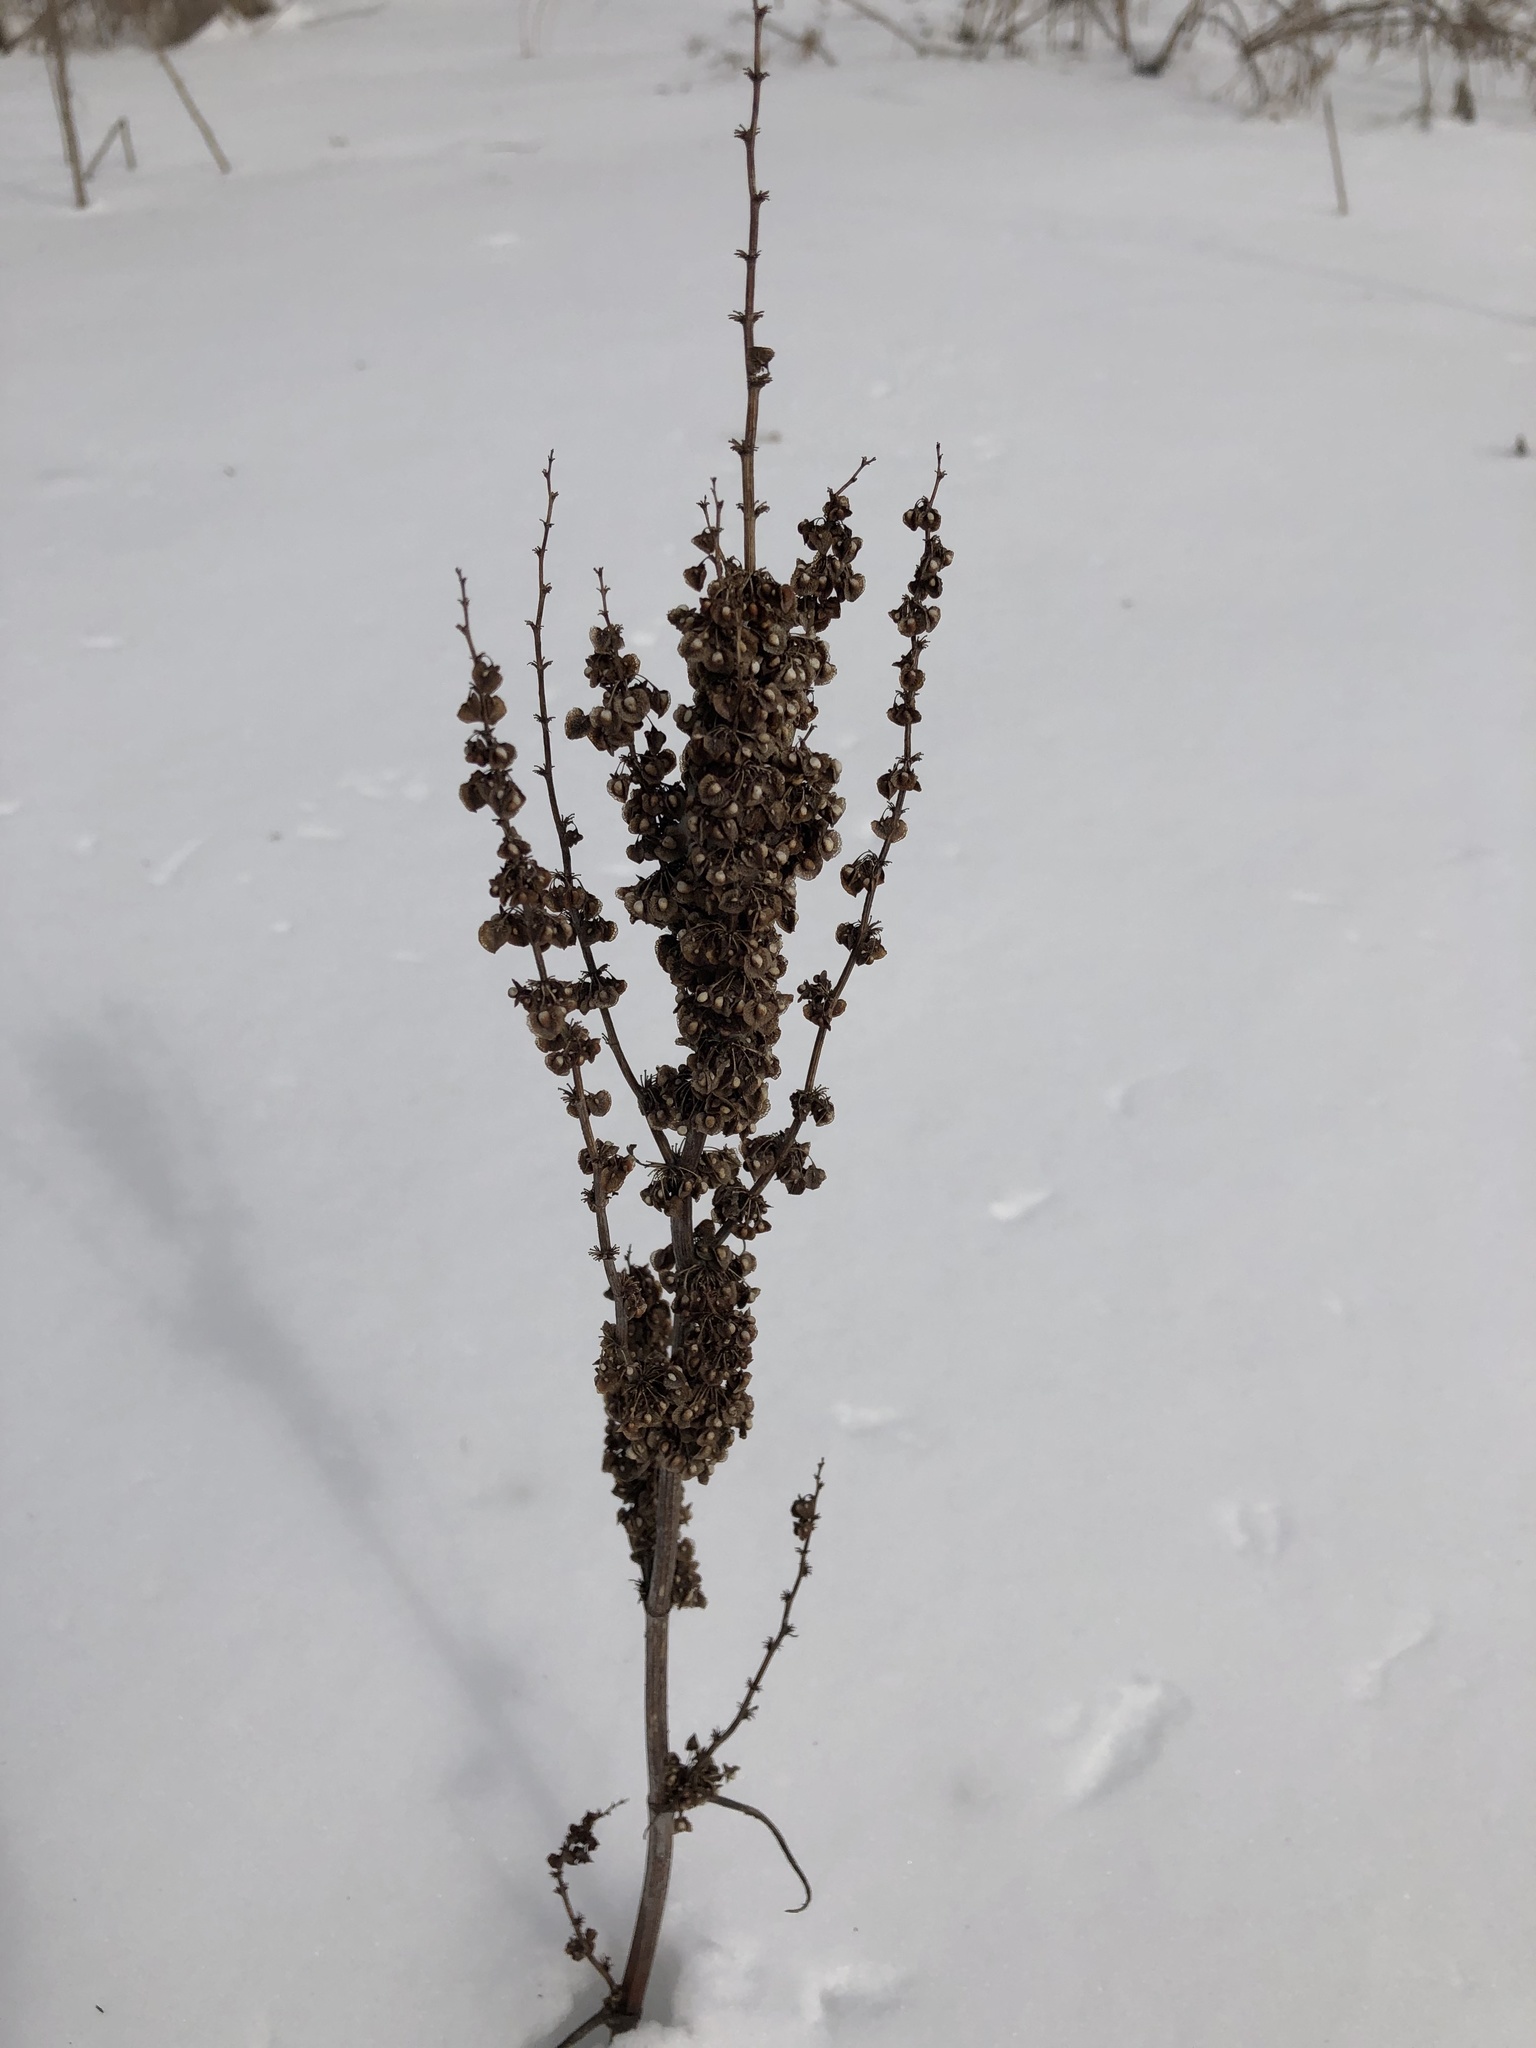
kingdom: Plantae
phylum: Tracheophyta
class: Magnoliopsida
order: Caryophyllales
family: Polygonaceae
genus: Rumex
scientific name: Rumex crispus
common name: Curled dock
